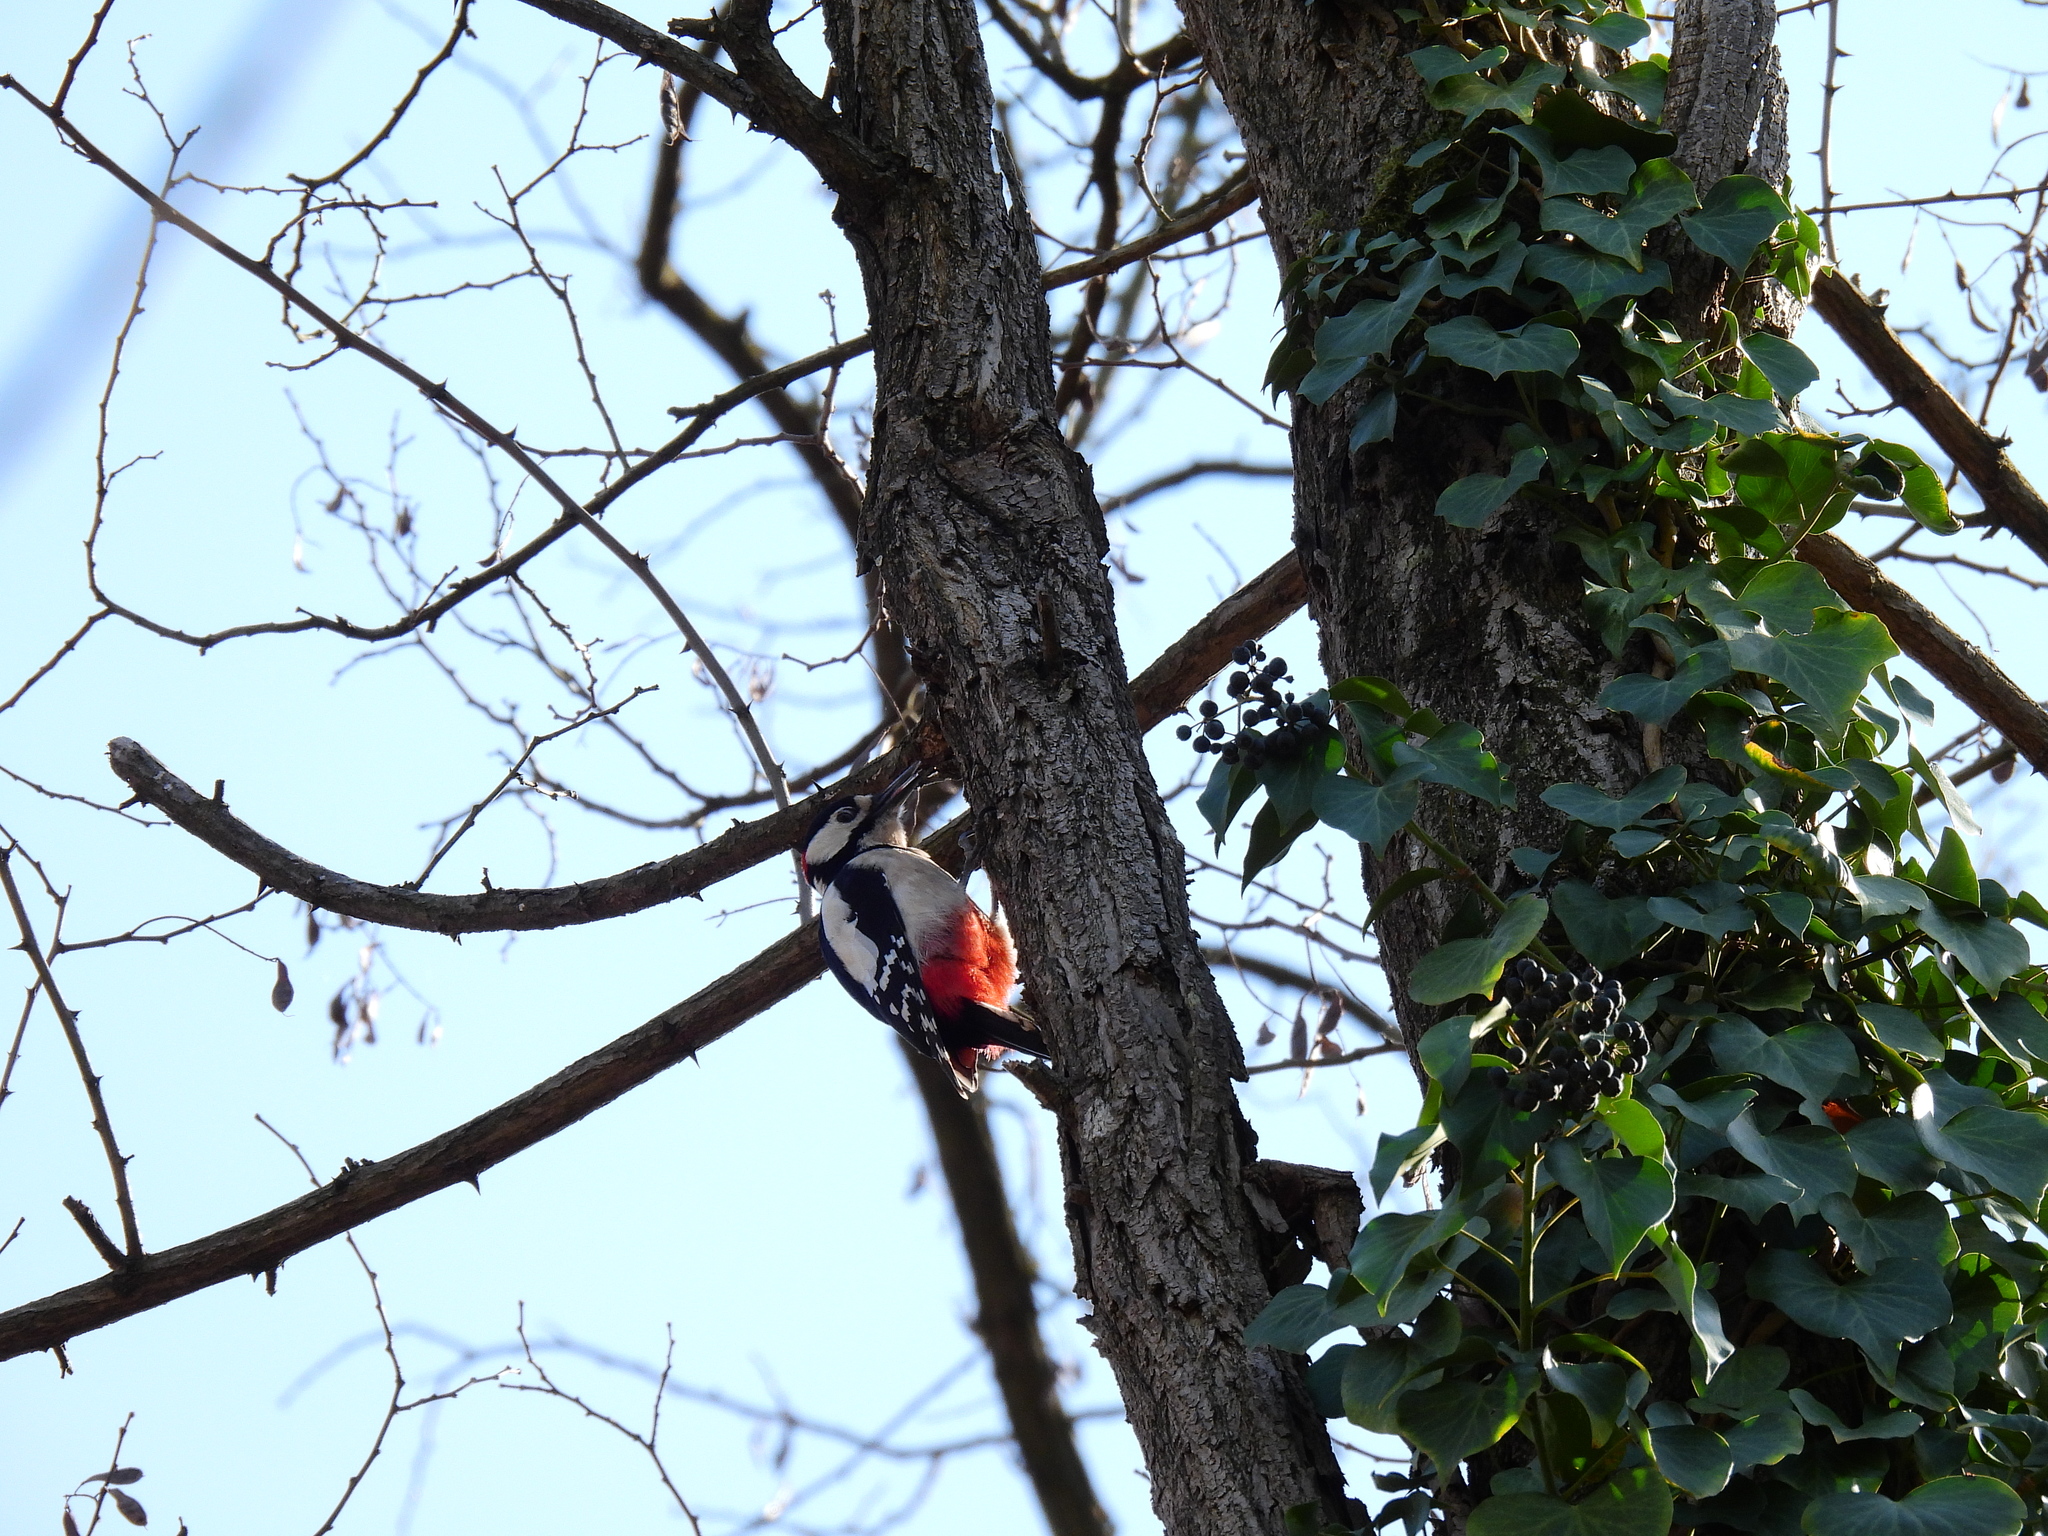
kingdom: Animalia
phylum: Chordata
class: Aves
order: Piciformes
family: Picidae
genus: Dendrocopos
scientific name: Dendrocopos major
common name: Great spotted woodpecker
